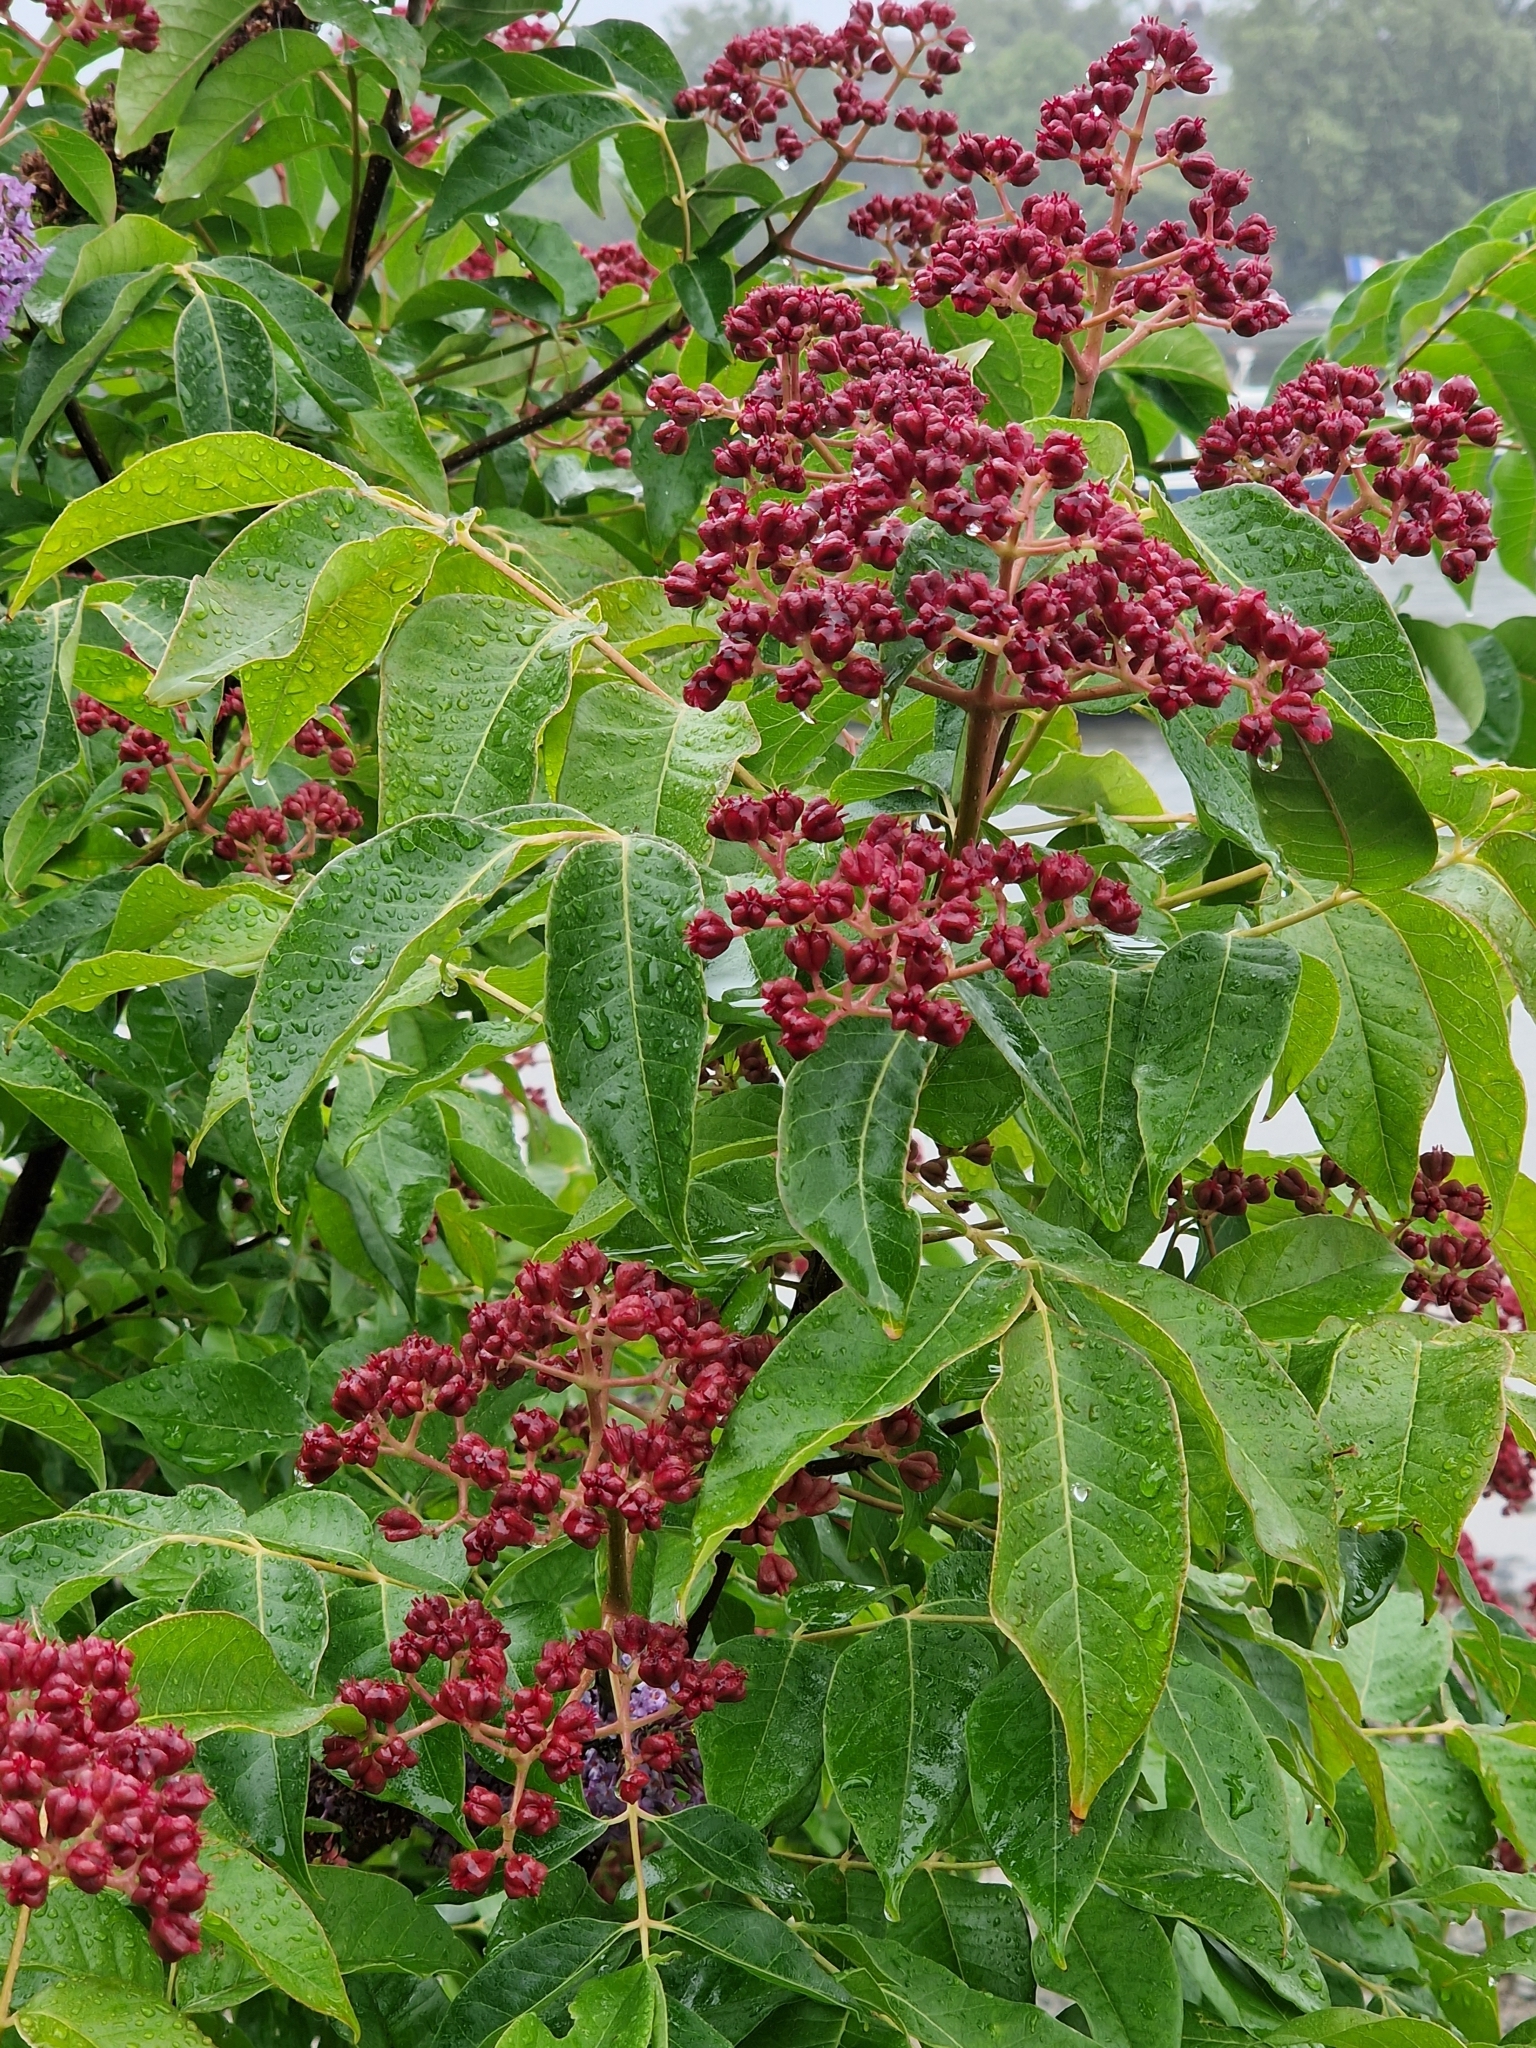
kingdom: Plantae
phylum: Tracheophyta
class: Magnoliopsida
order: Sapindales
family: Rutaceae
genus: Tetradium
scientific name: Tetradium daniellii
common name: Bee-bee tree
